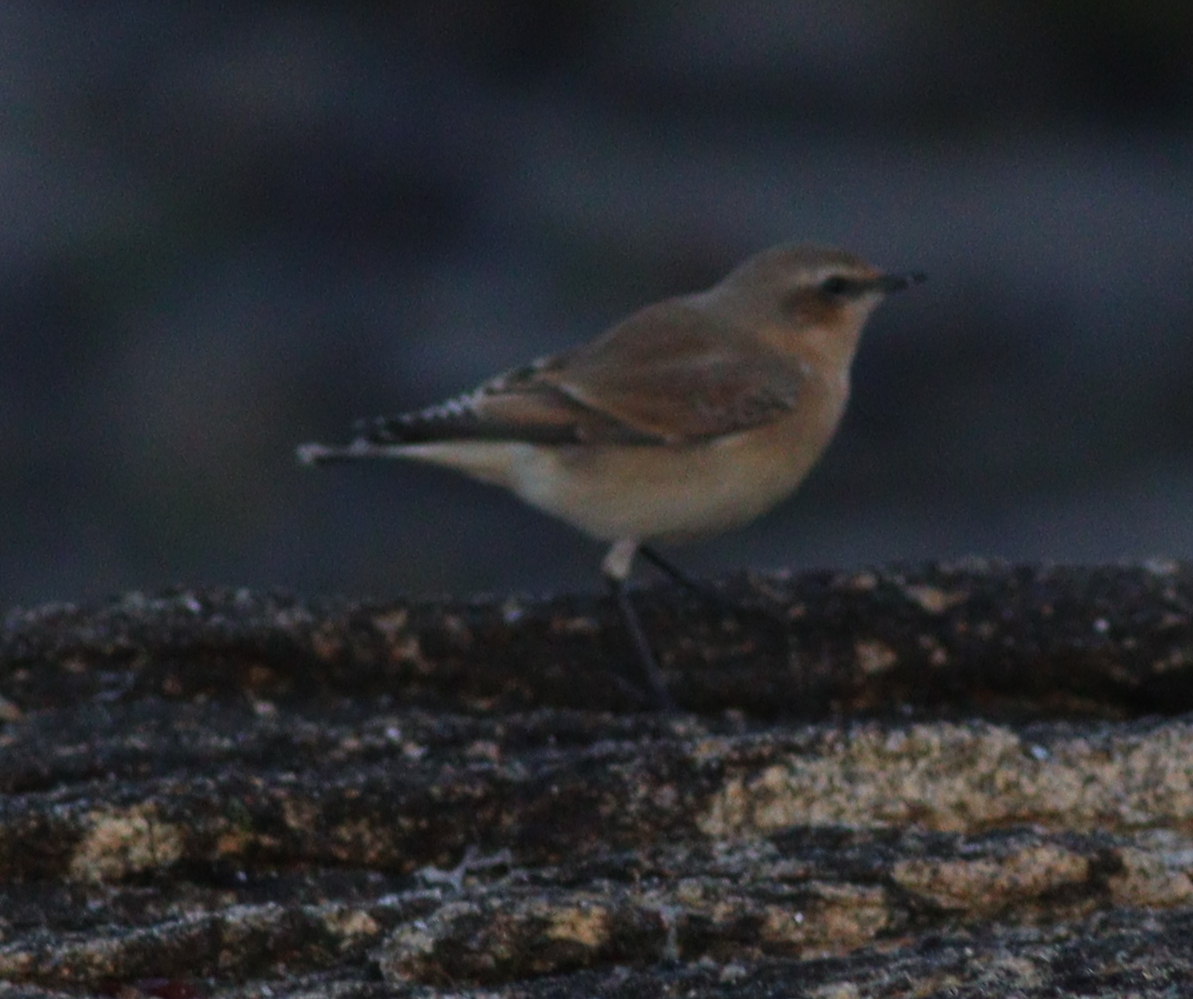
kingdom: Animalia
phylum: Chordata
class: Aves
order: Passeriformes
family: Muscicapidae
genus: Oenanthe
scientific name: Oenanthe oenanthe
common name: Northern wheatear
